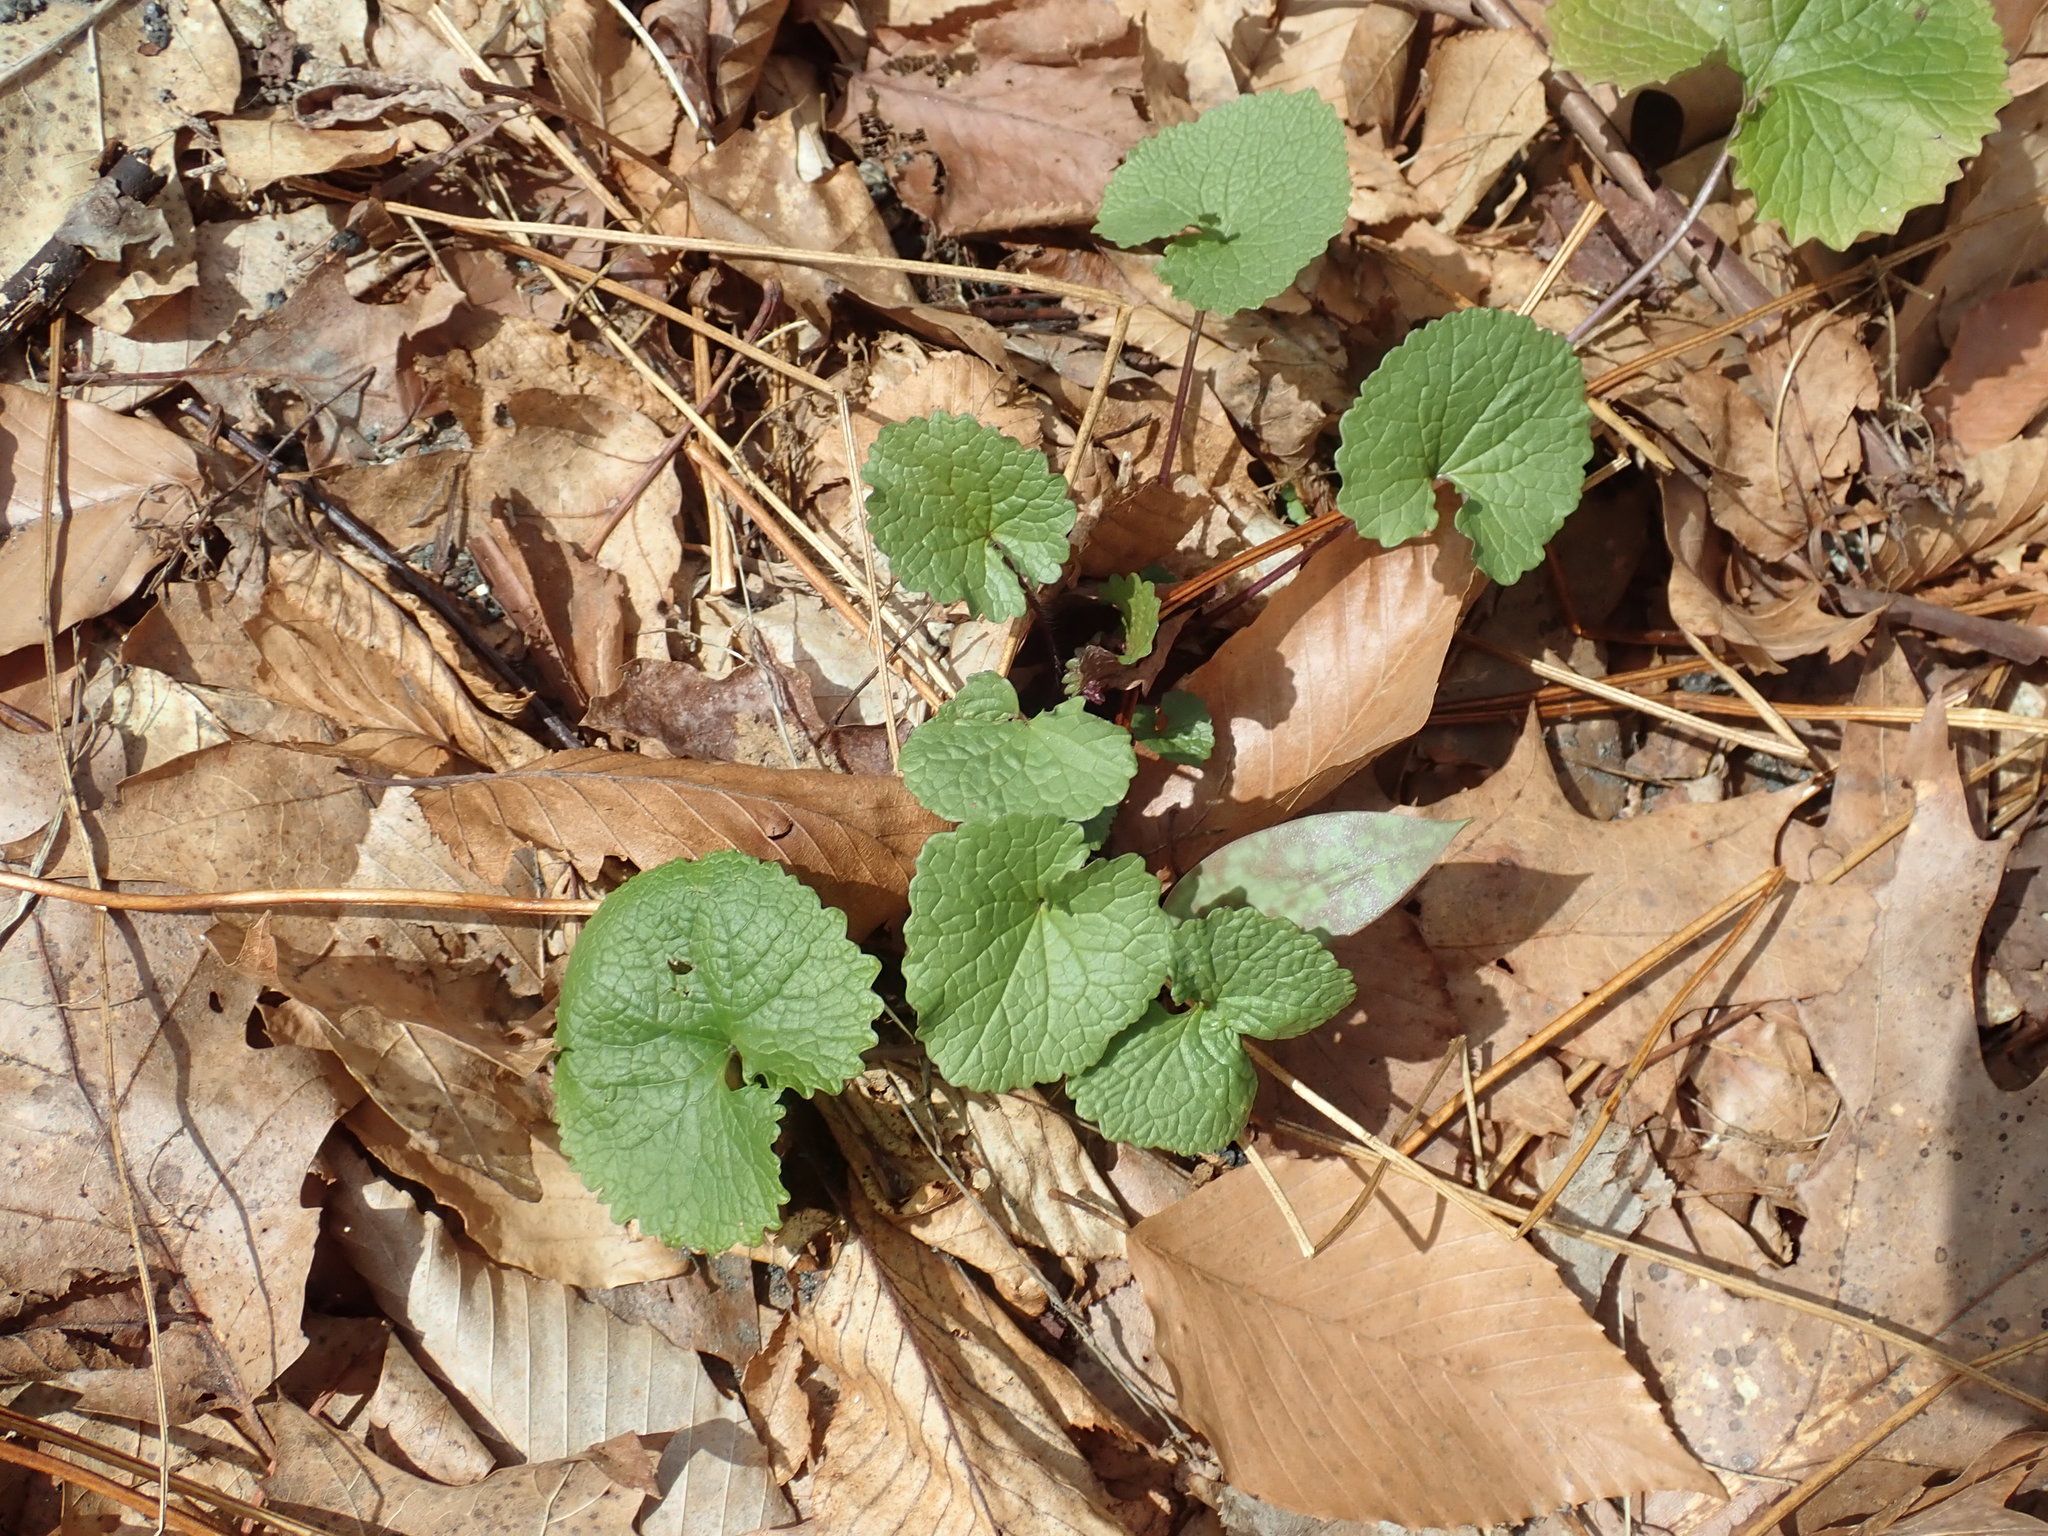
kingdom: Plantae
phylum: Tracheophyta
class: Magnoliopsida
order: Brassicales
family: Brassicaceae
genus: Alliaria
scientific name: Alliaria petiolata
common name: Garlic mustard
